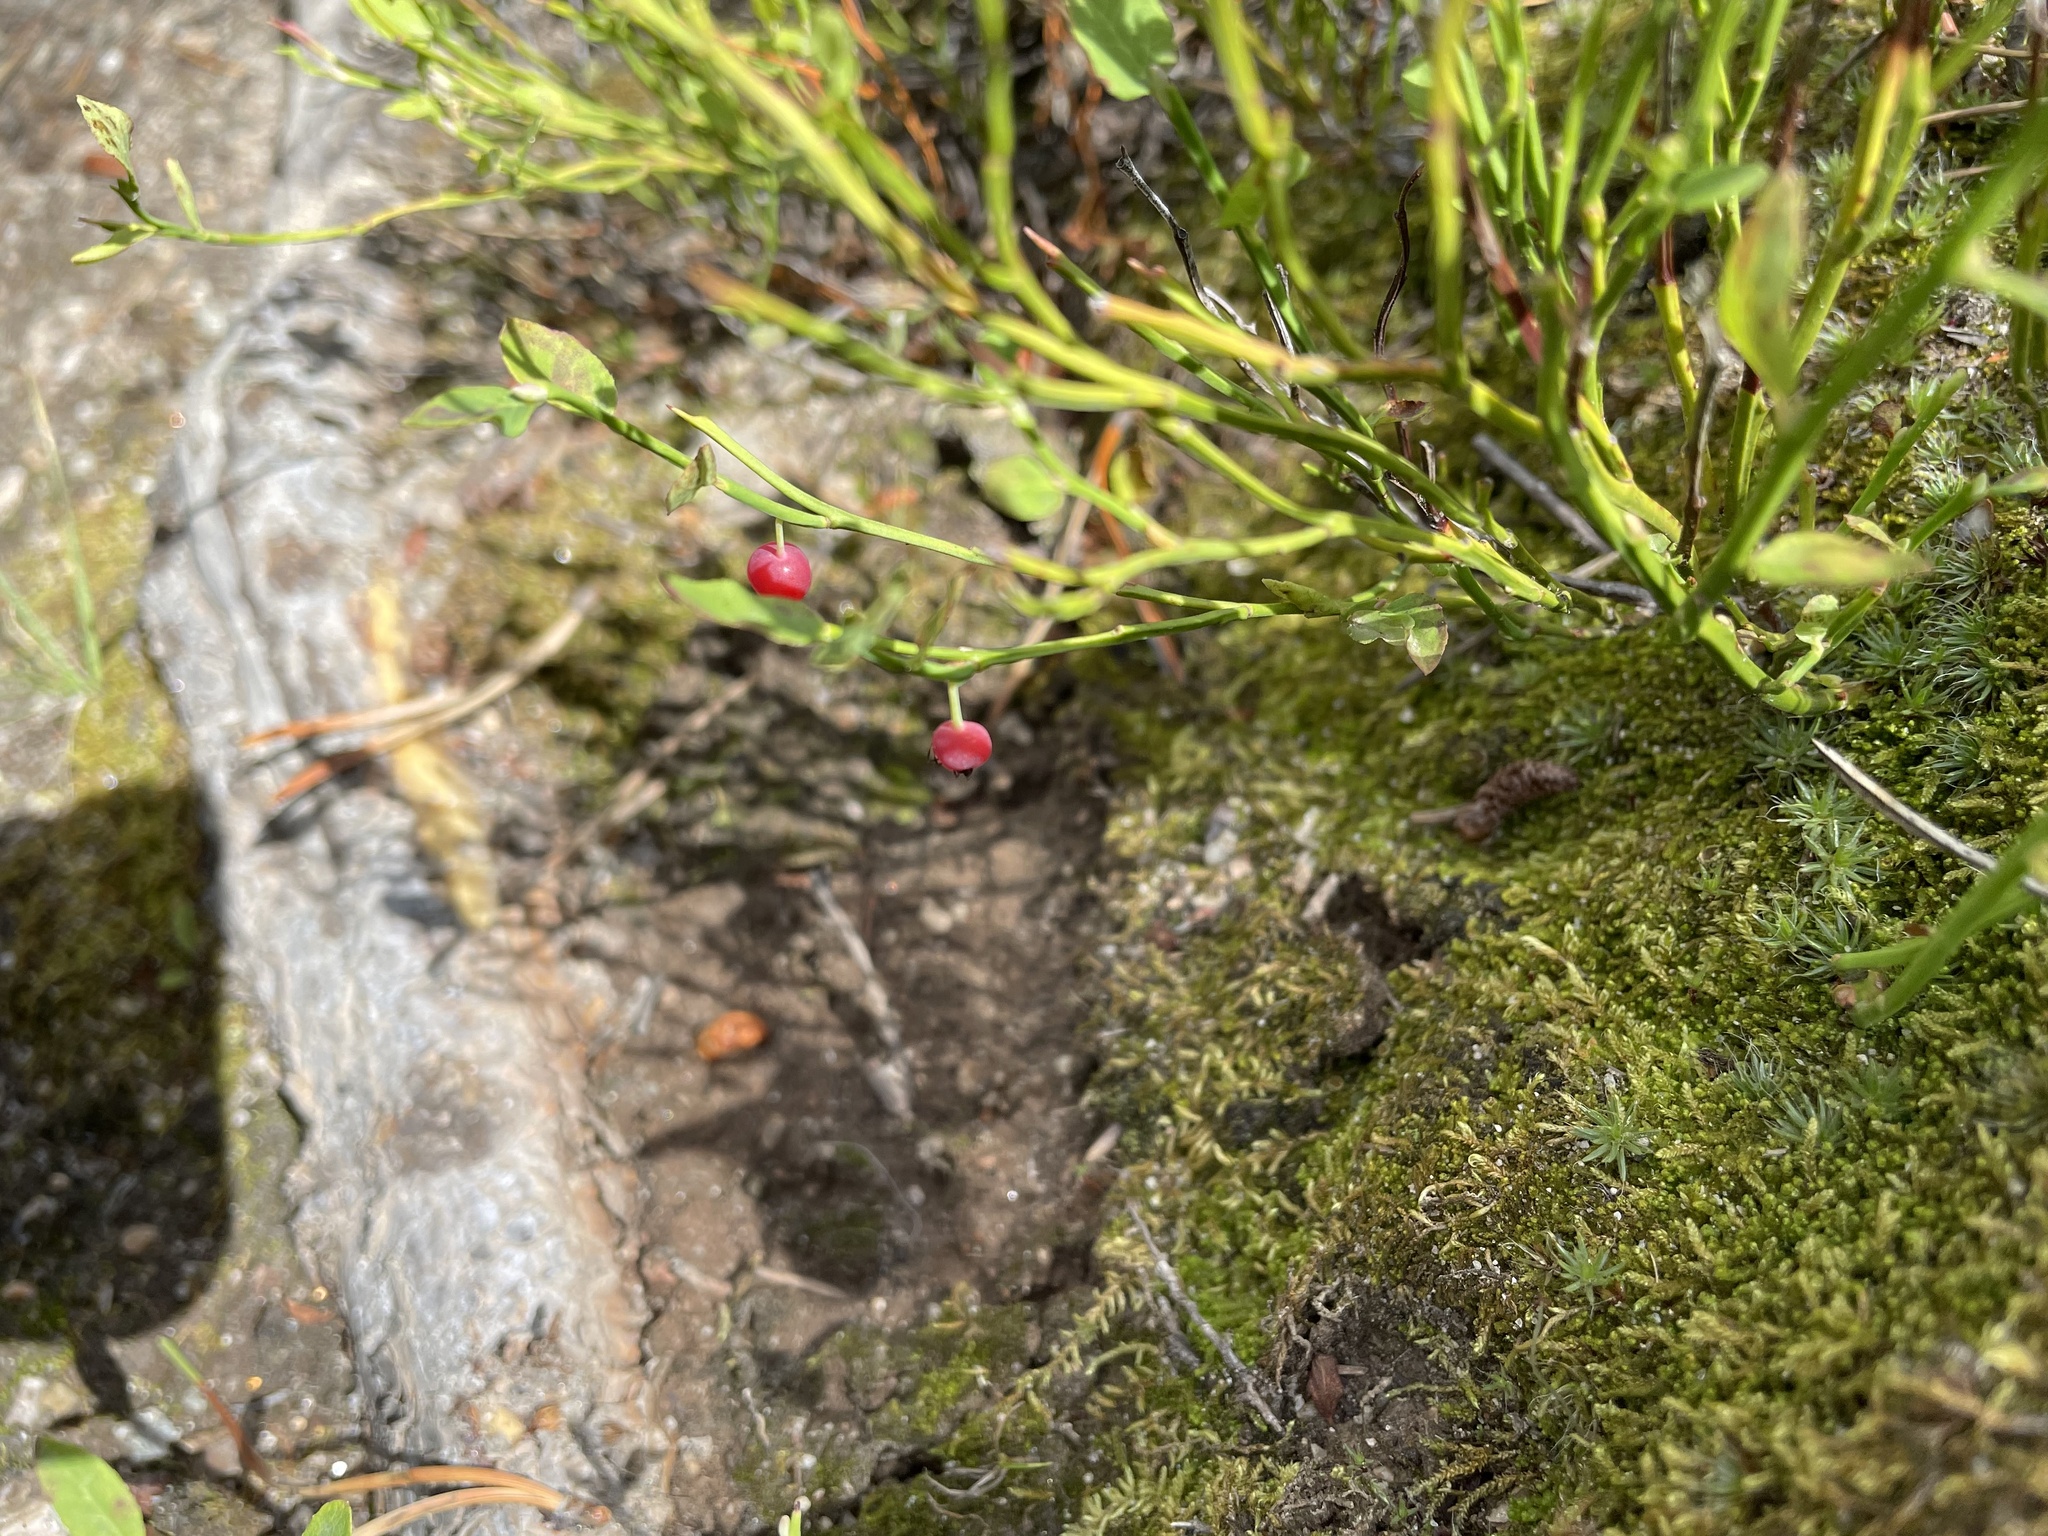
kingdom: Plantae
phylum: Tracheophyta
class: Magnoliopsida
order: Ericales
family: Ericaceae
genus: Vaccinium
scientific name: Vaccinium scoparium
